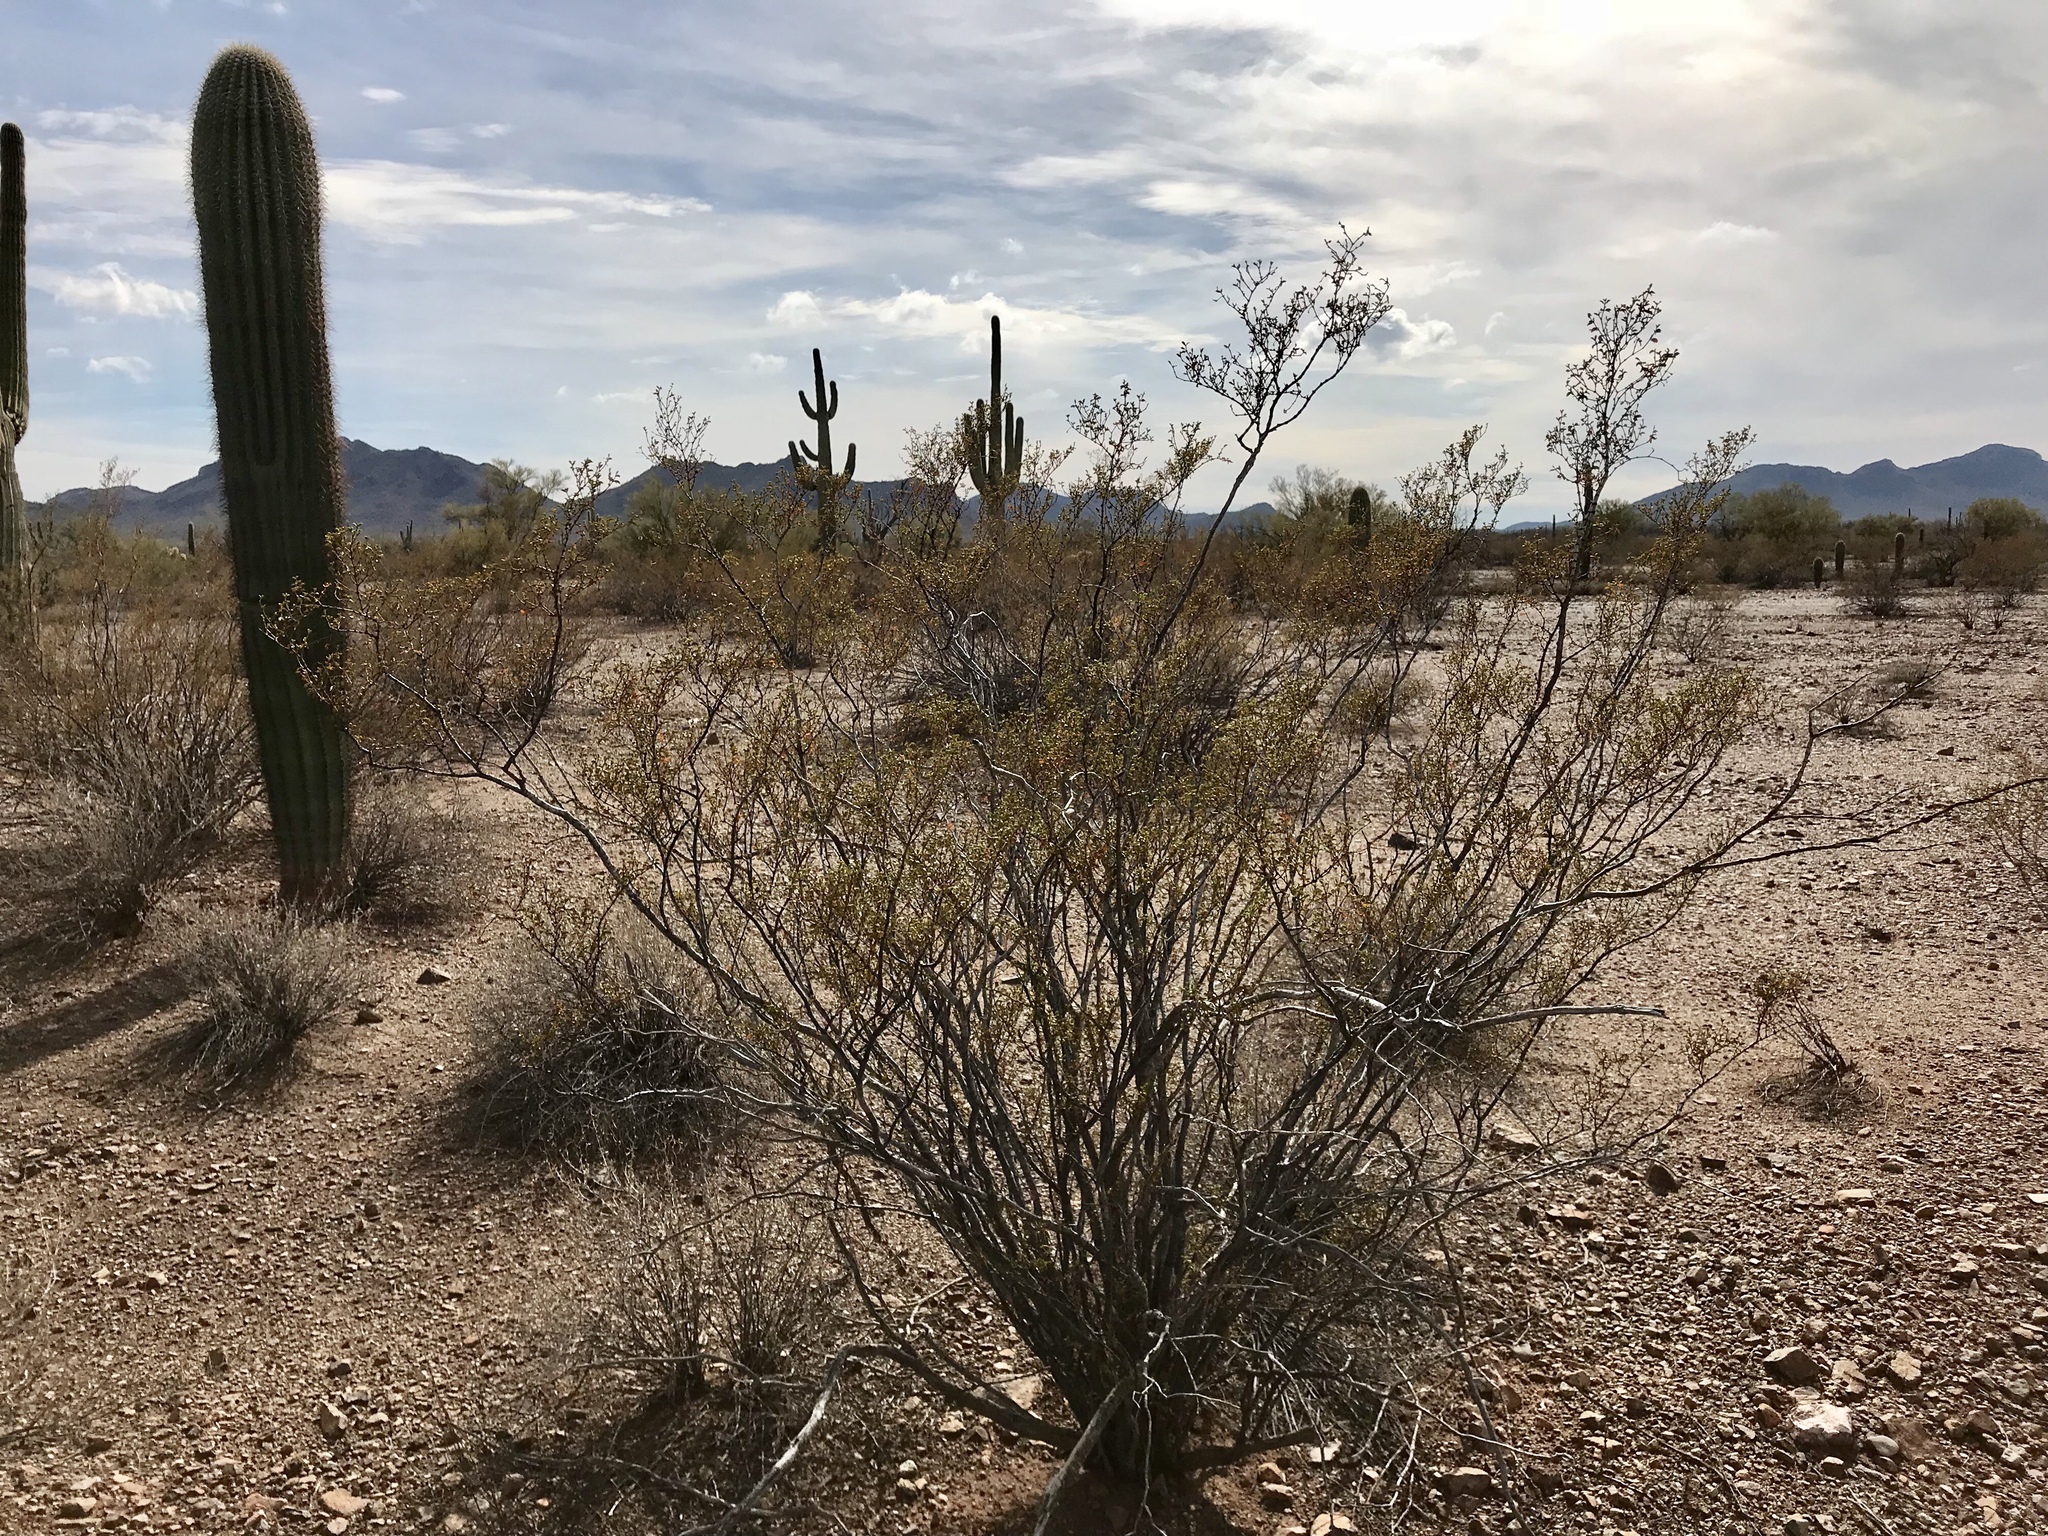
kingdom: Plantae
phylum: Tracheophyta
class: Magnoliopsida
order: Zygophyllales
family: Zygophyllaceae
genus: Larrea
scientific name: Larrea tridentata
